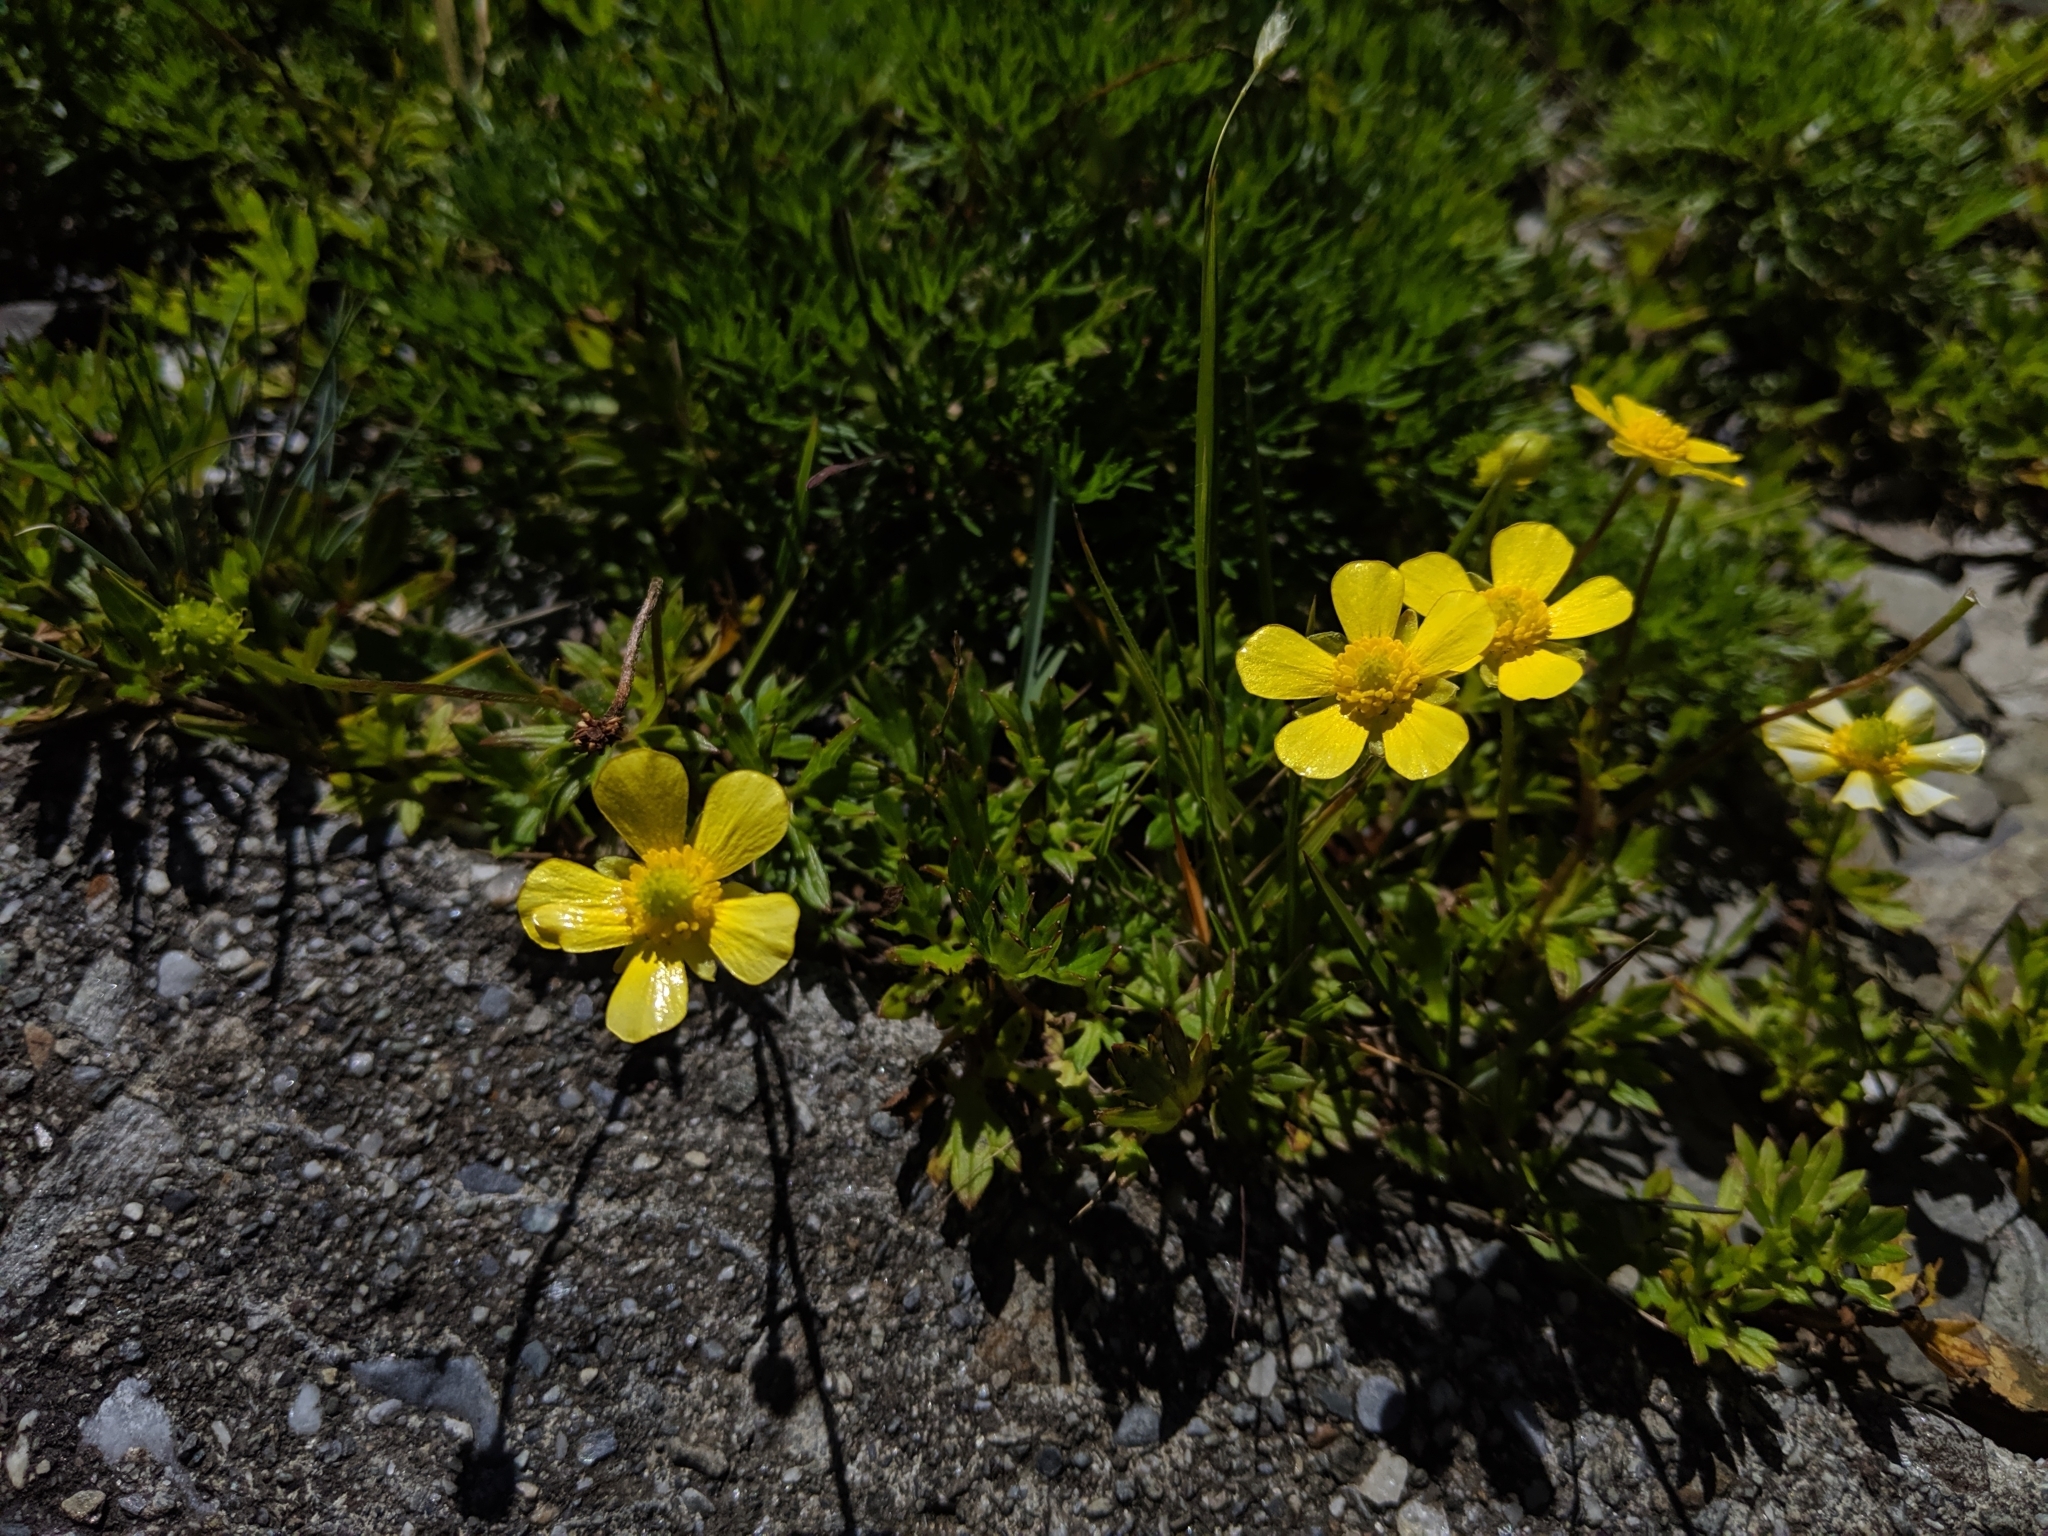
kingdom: Plantae
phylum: Tracheophyta
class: Magnoliopsida
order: Ranunculales
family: Ranunculaceae
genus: Ranunculus
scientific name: Ranunculus formosa-montanus
